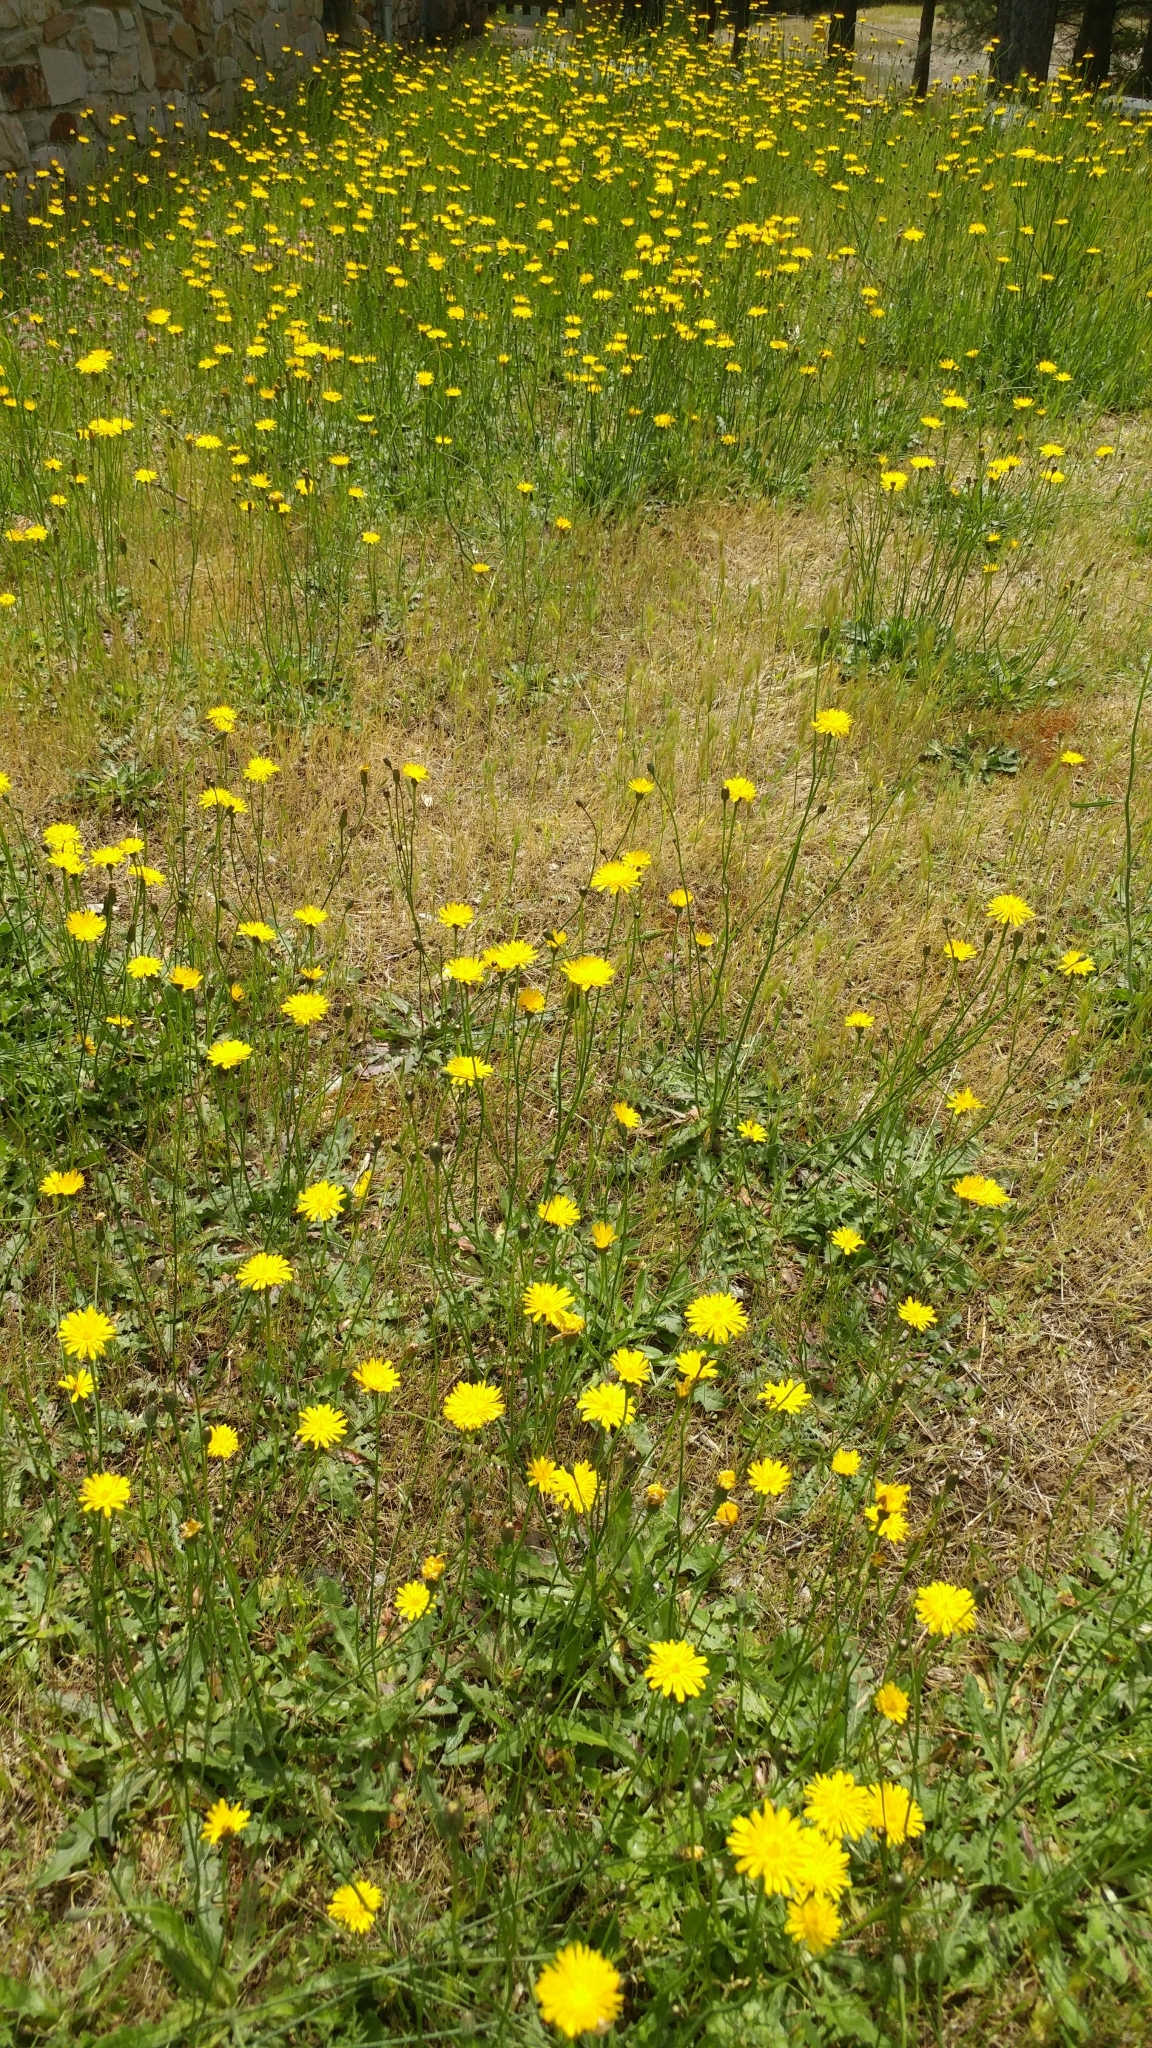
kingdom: Plantae
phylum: Tracheophyta
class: Magnoliopsida
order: Asterales
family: Asteraceae
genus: Hypochaeris
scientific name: Hypochaeris radicata
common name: Flatweed
